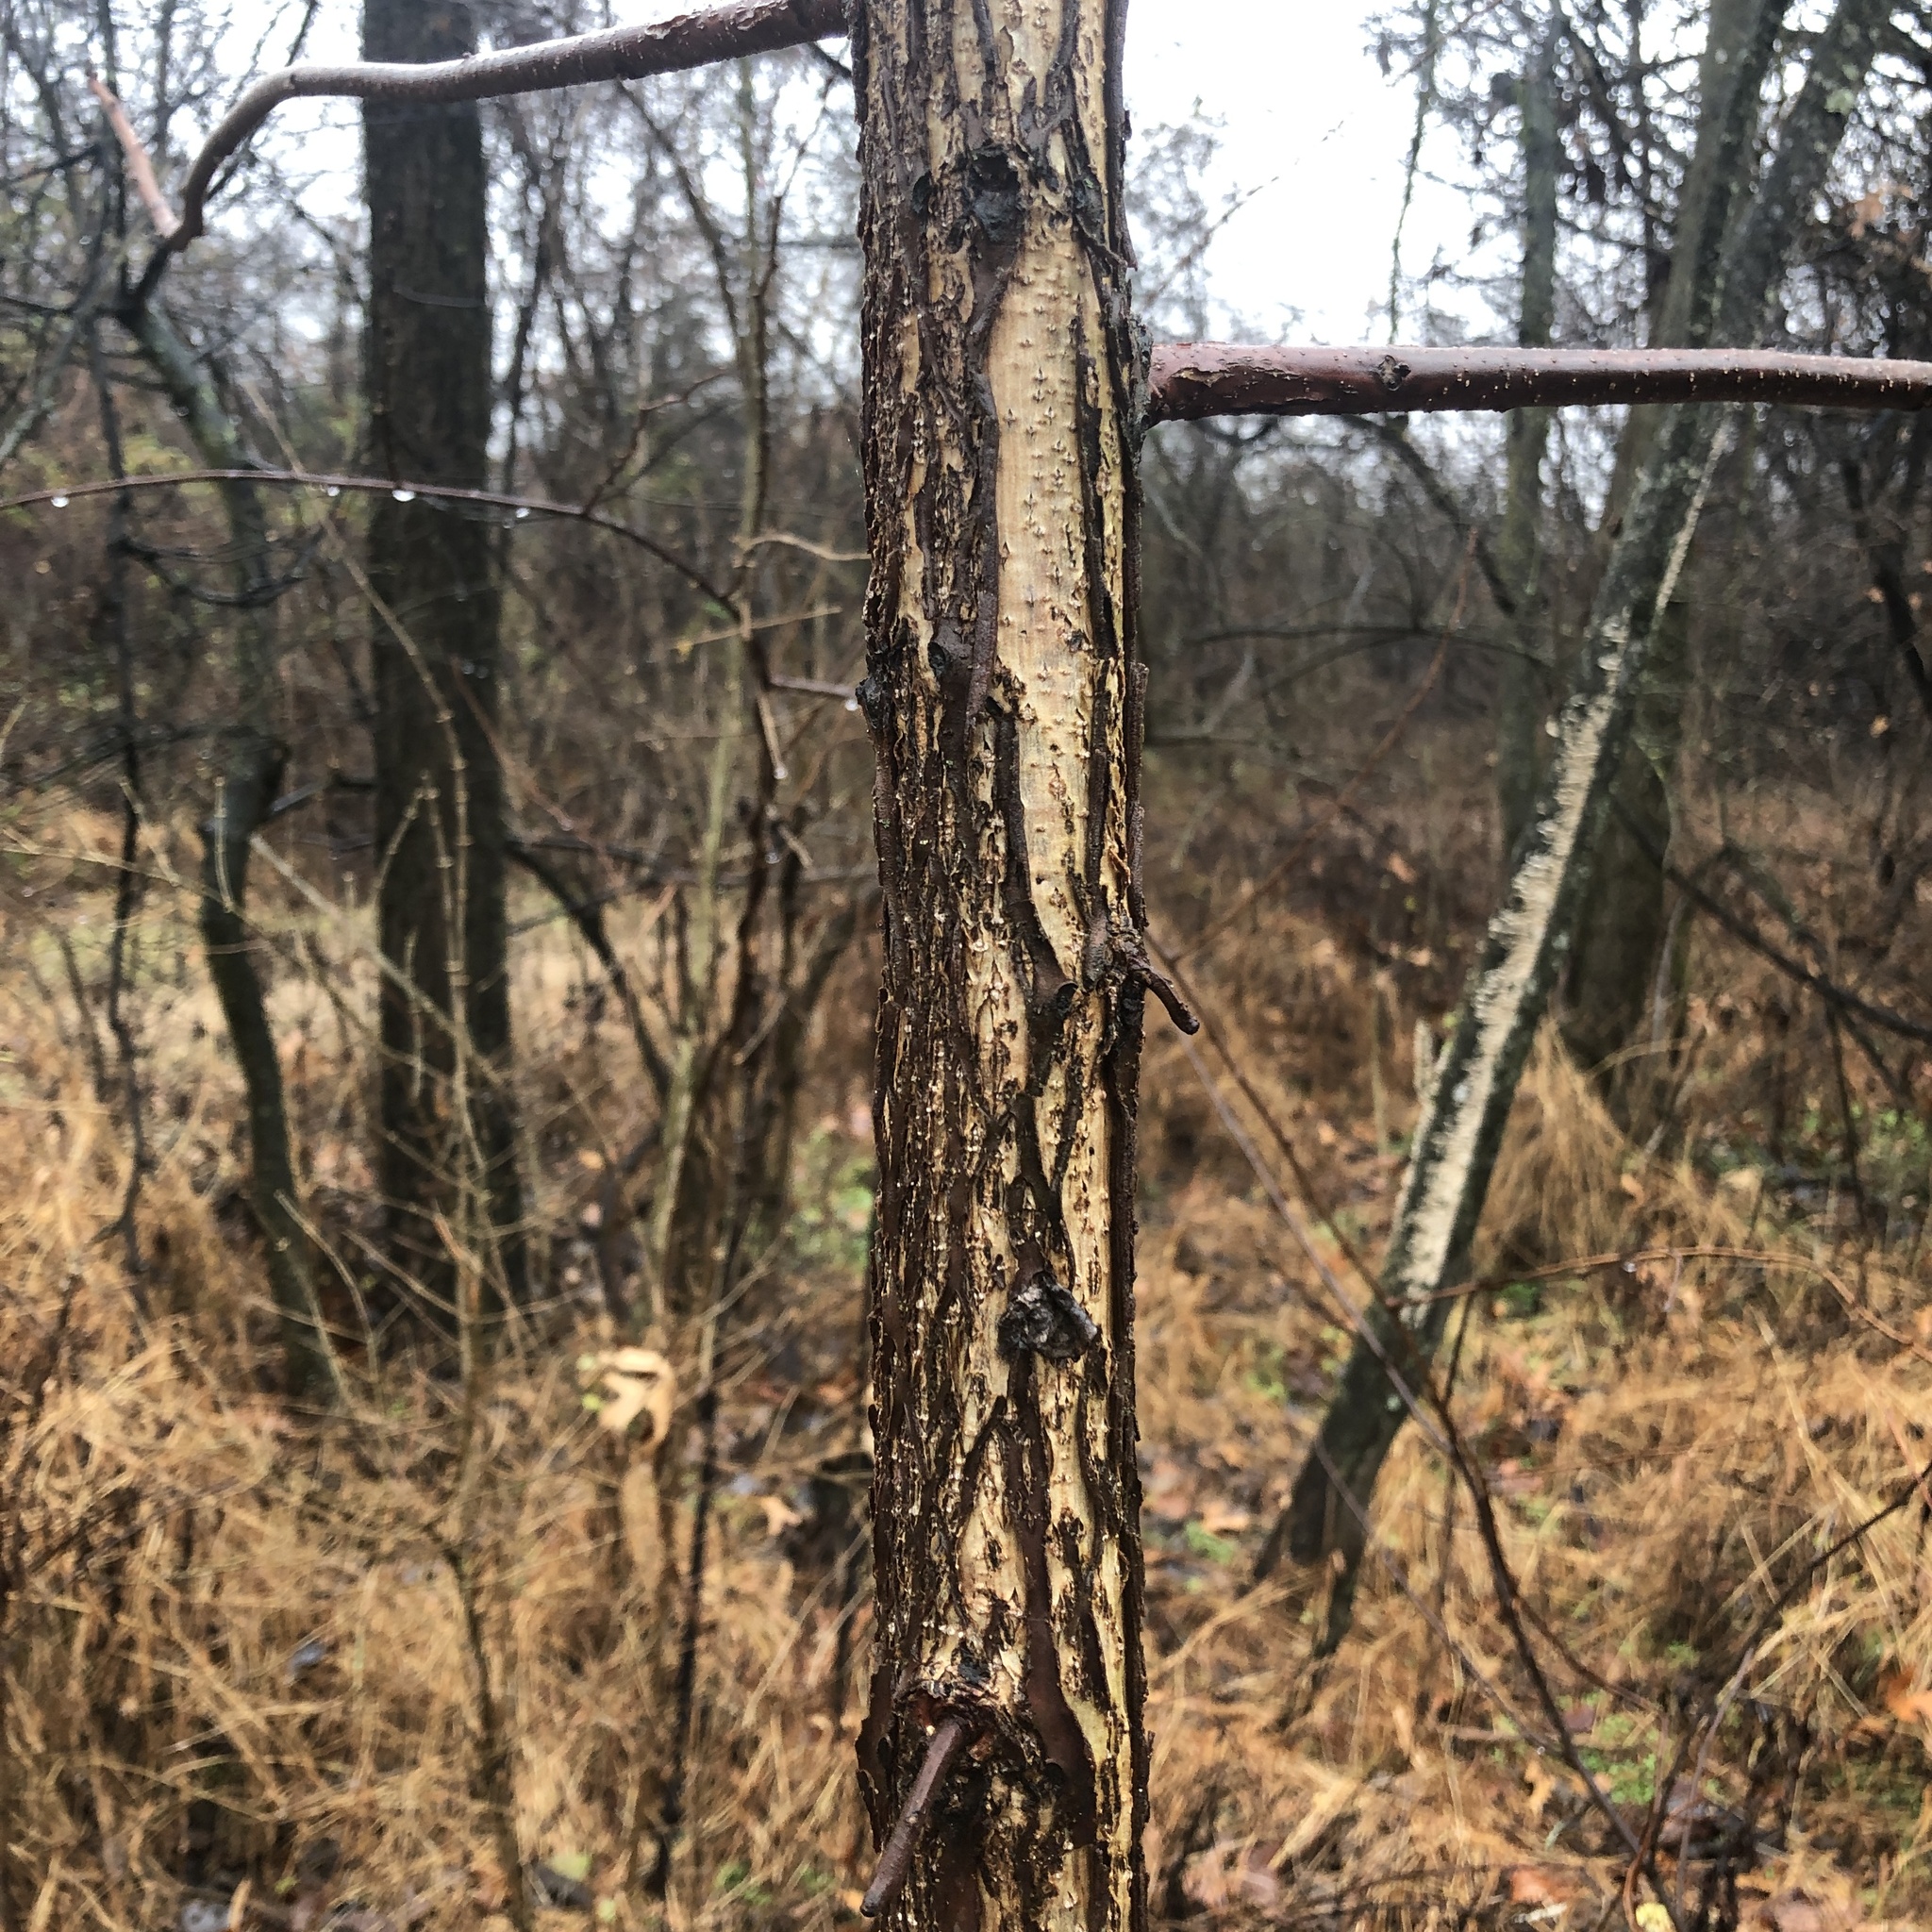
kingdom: Plantae
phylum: Tracheophyta
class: Magnoliopsida
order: Fagales
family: Juglandaceae
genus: Juglans
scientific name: Juglans nigra
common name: Black walnut
